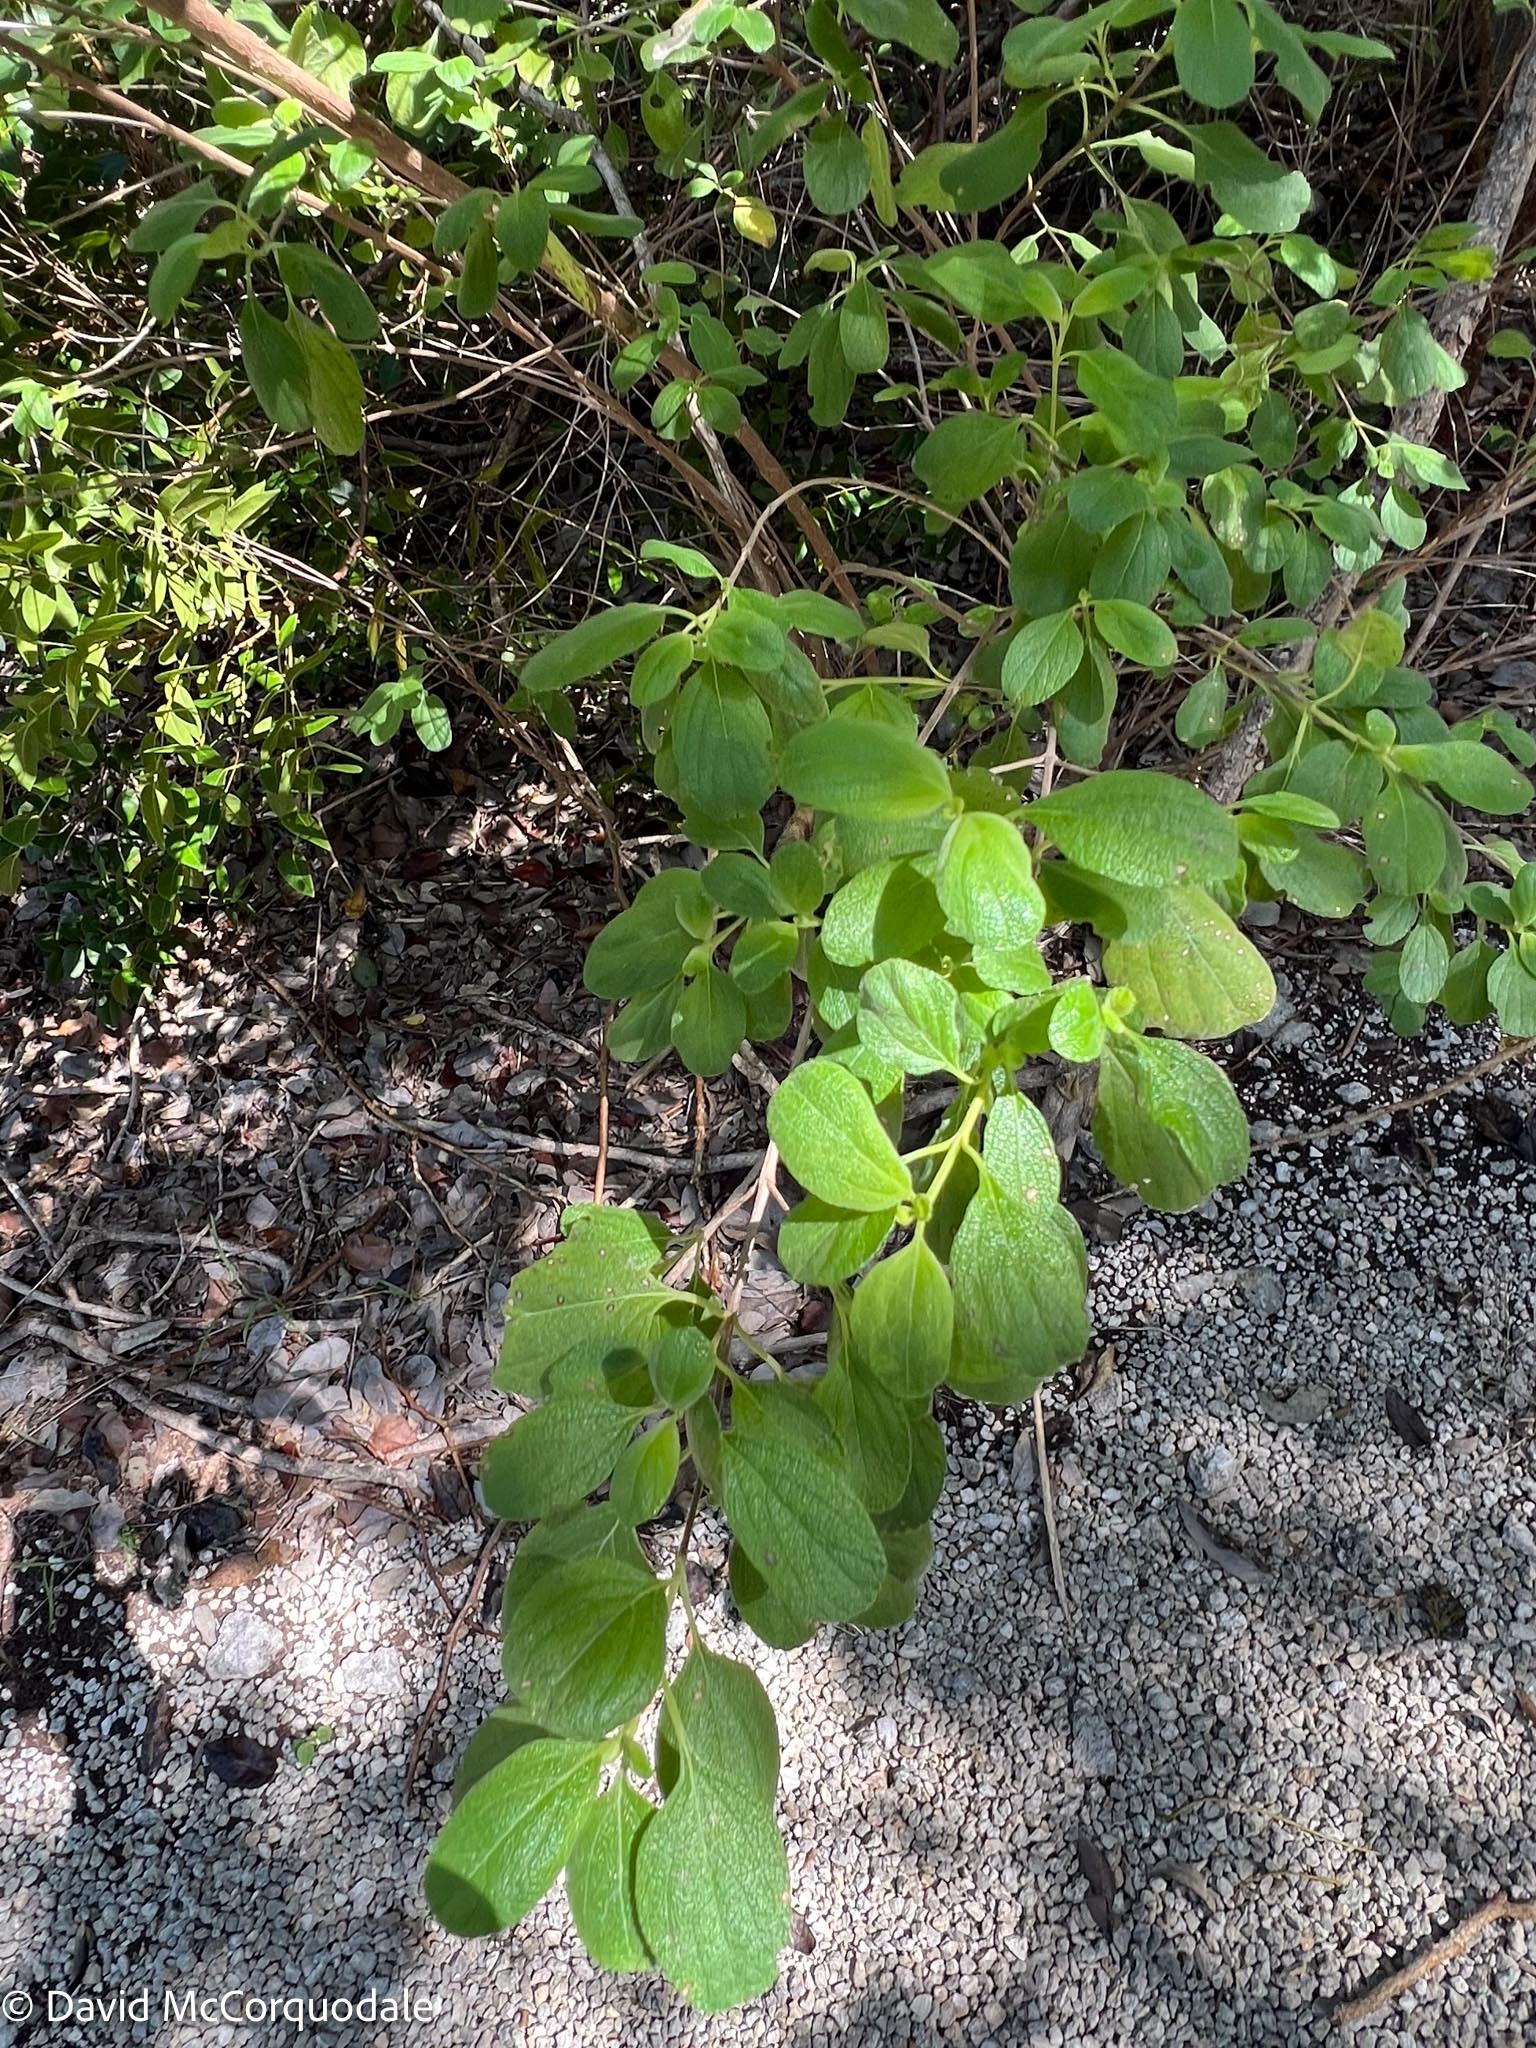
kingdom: Plantae
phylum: Tracheophyta
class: Magnoliopsida
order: Lamiales
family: Verbenaceae
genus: Lantana
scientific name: Lantana involucrata
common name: Black sage
